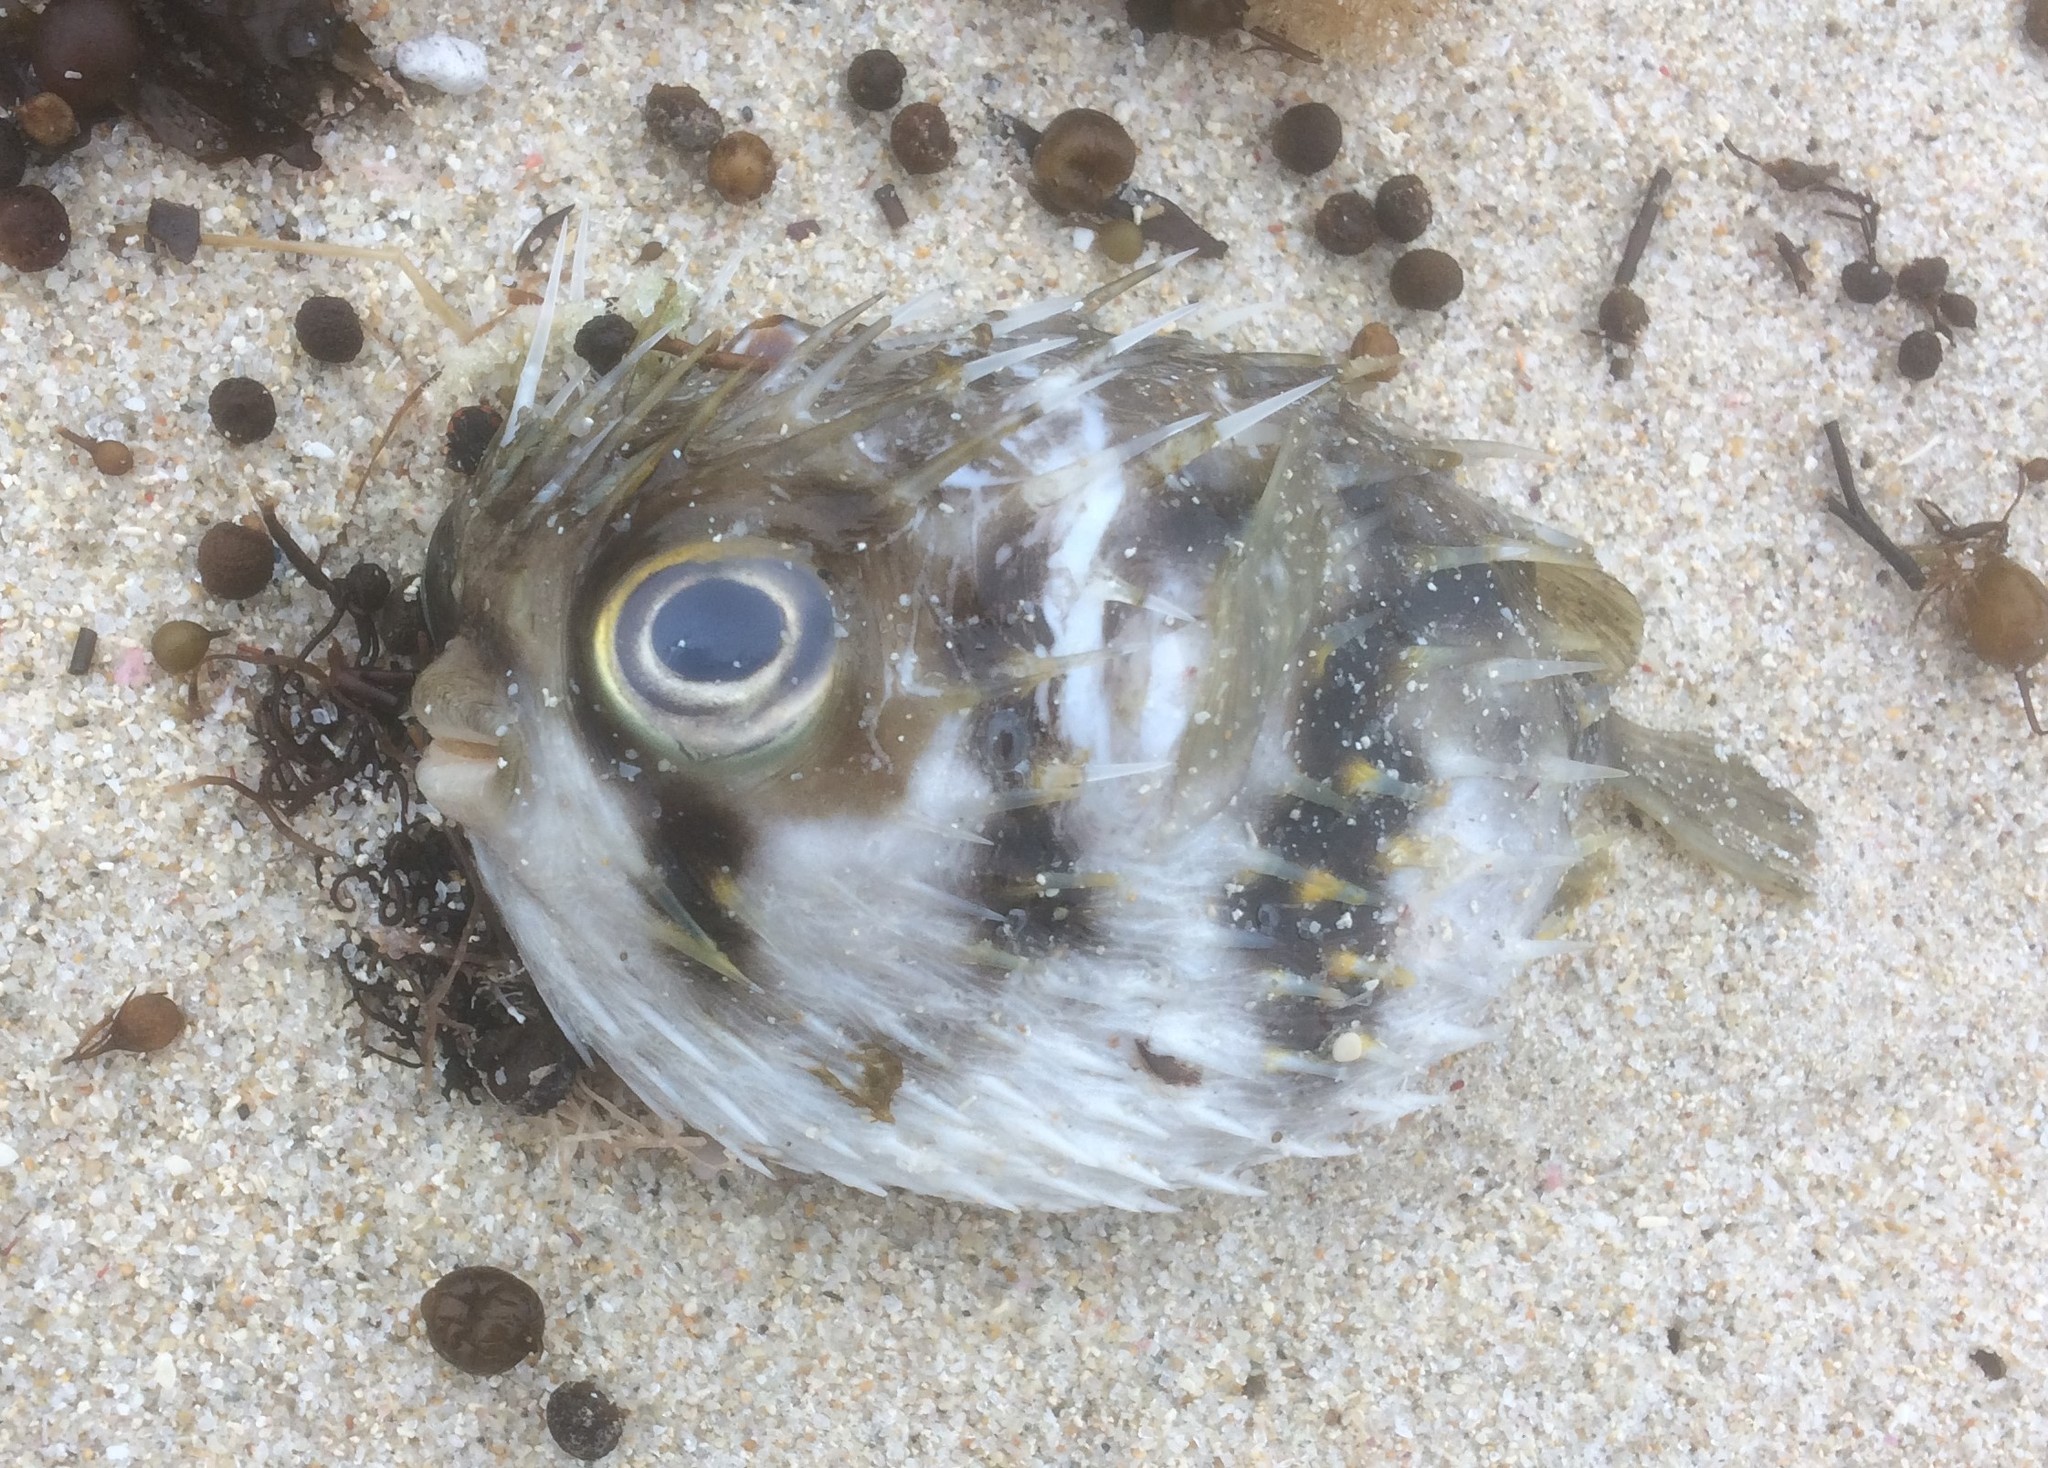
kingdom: Animalia
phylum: Chordata
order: Tetraodontiformes
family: Diodontidae
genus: Diodon
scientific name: Diodon nicthemerus
